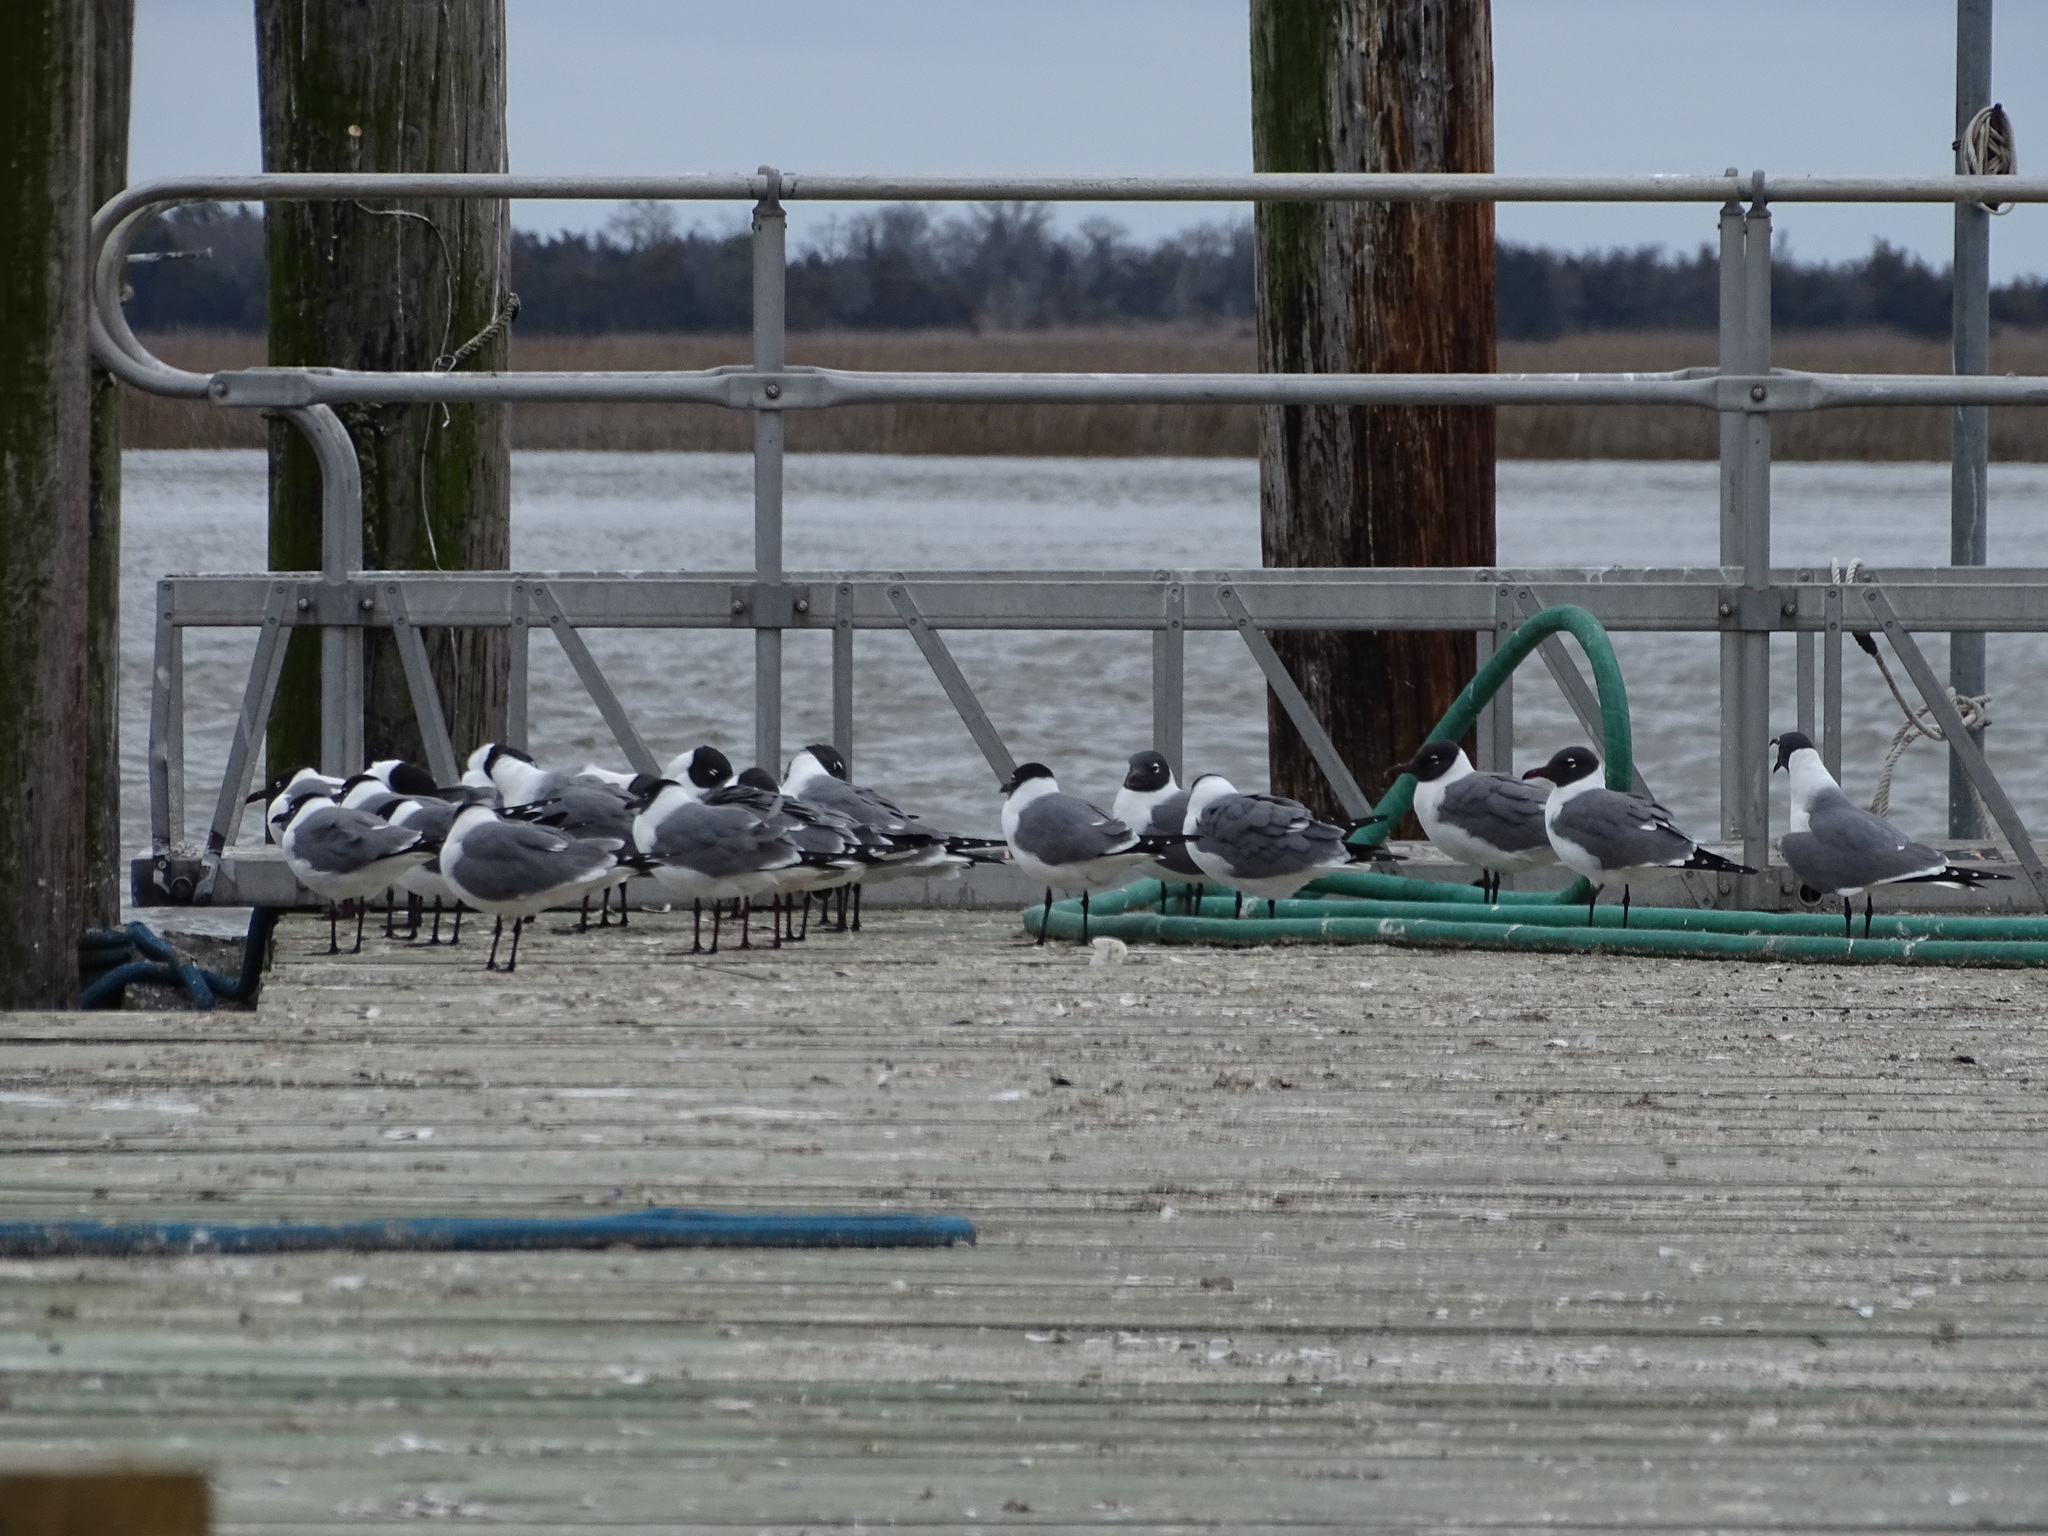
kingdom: Animalia
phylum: Chordata
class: Aves
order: Charadriiformes
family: Laridae
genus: Leucophaeus
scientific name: Leucophaeus atricilla
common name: Laughing gull
